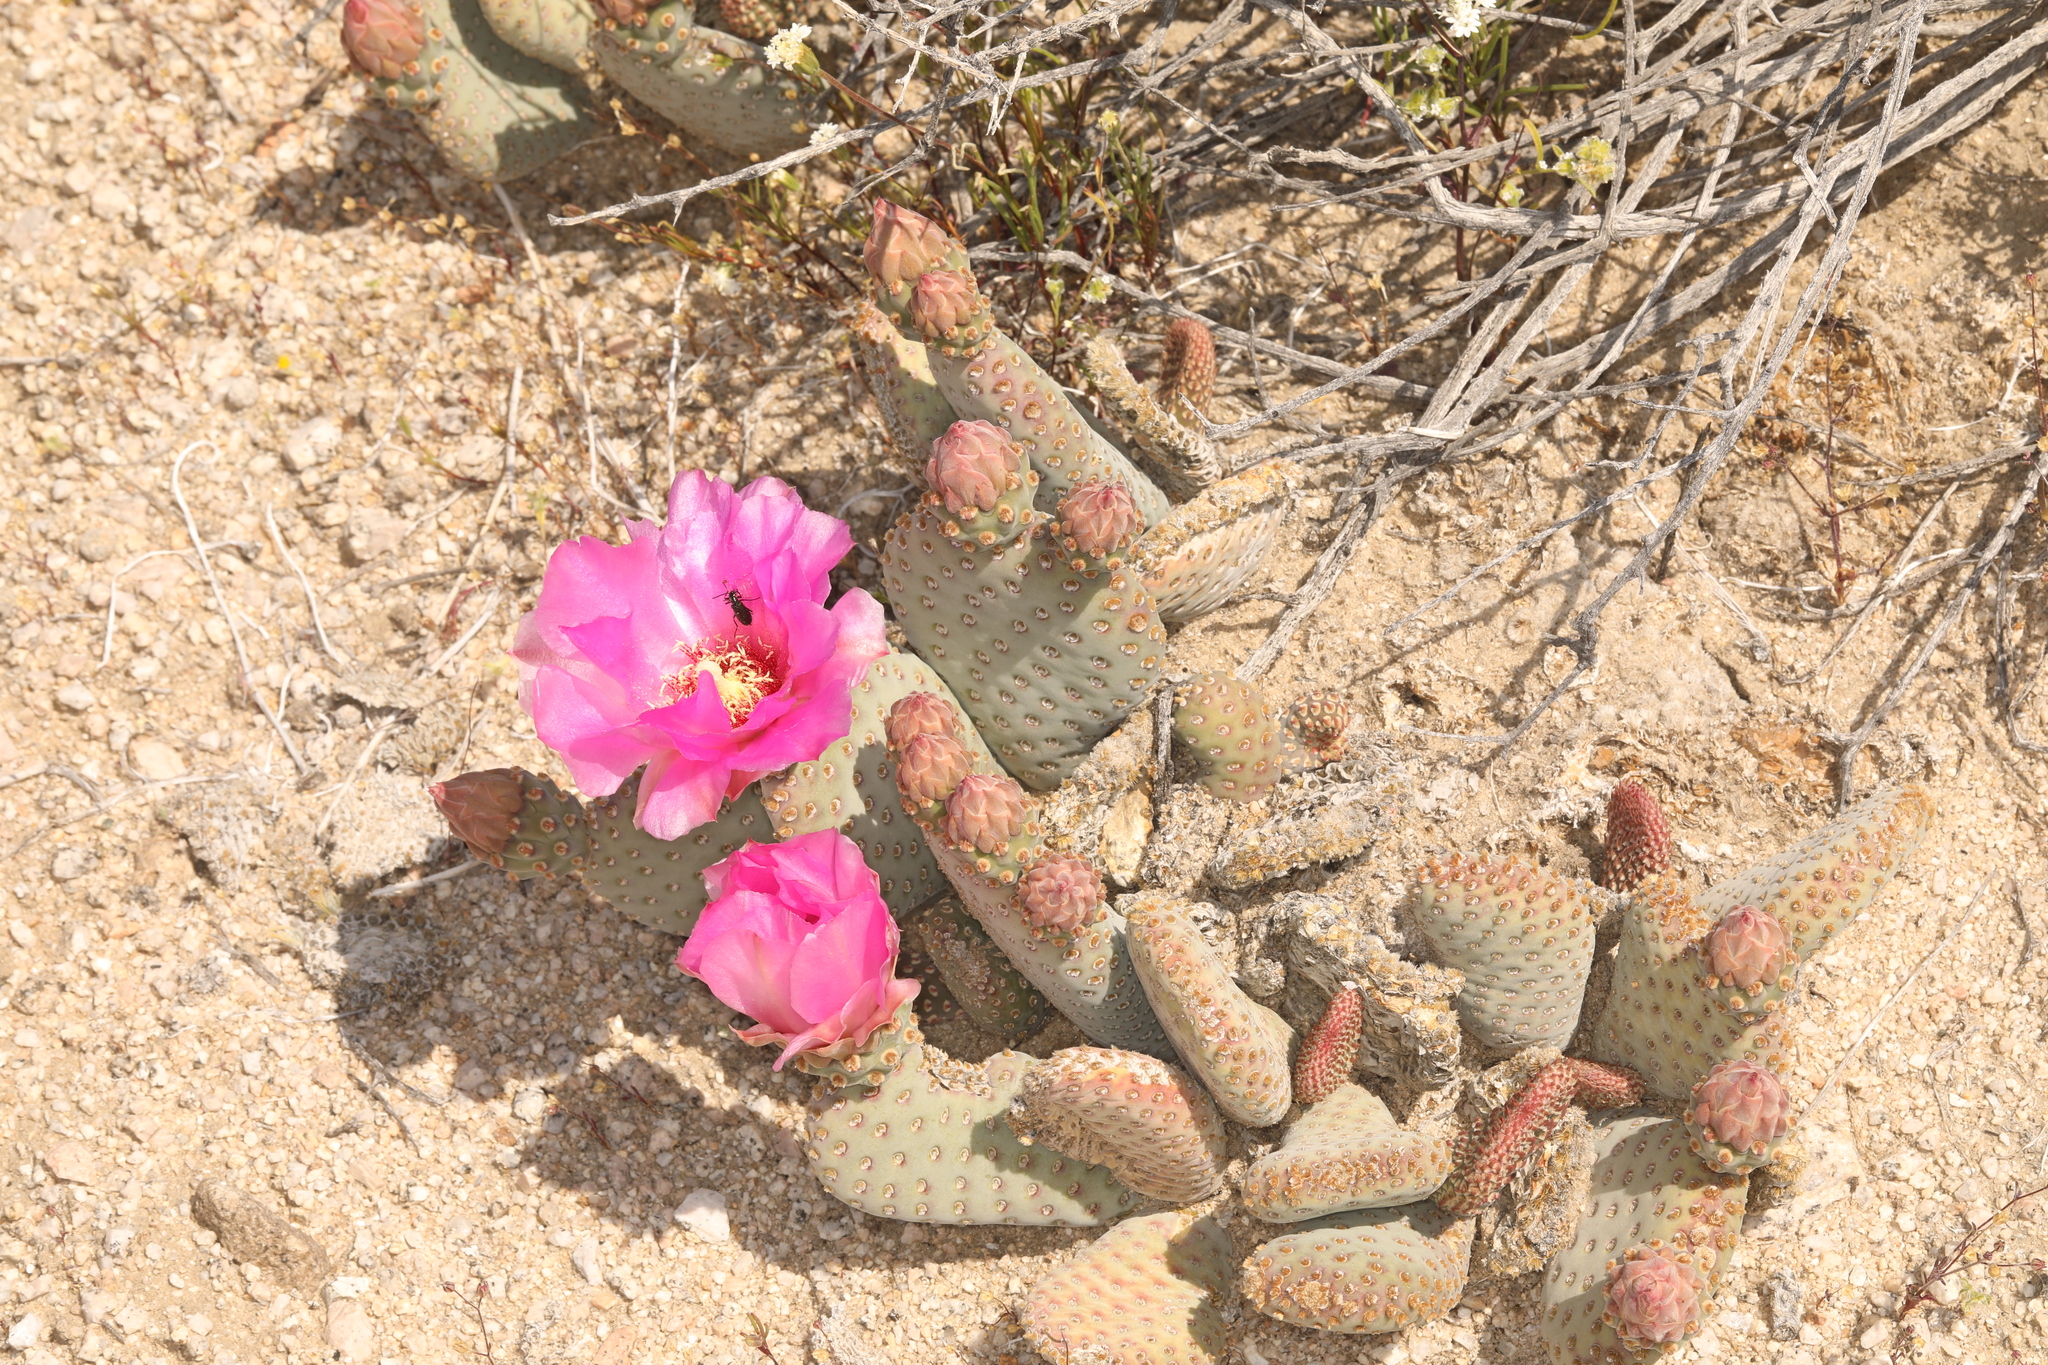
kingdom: Plantae
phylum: Tracheophyta
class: Magnoliopsida
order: Caryophyllales
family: Cactaceae
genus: Opuntia
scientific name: Opuntia basilaris
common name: Beavertail prickly-pear
